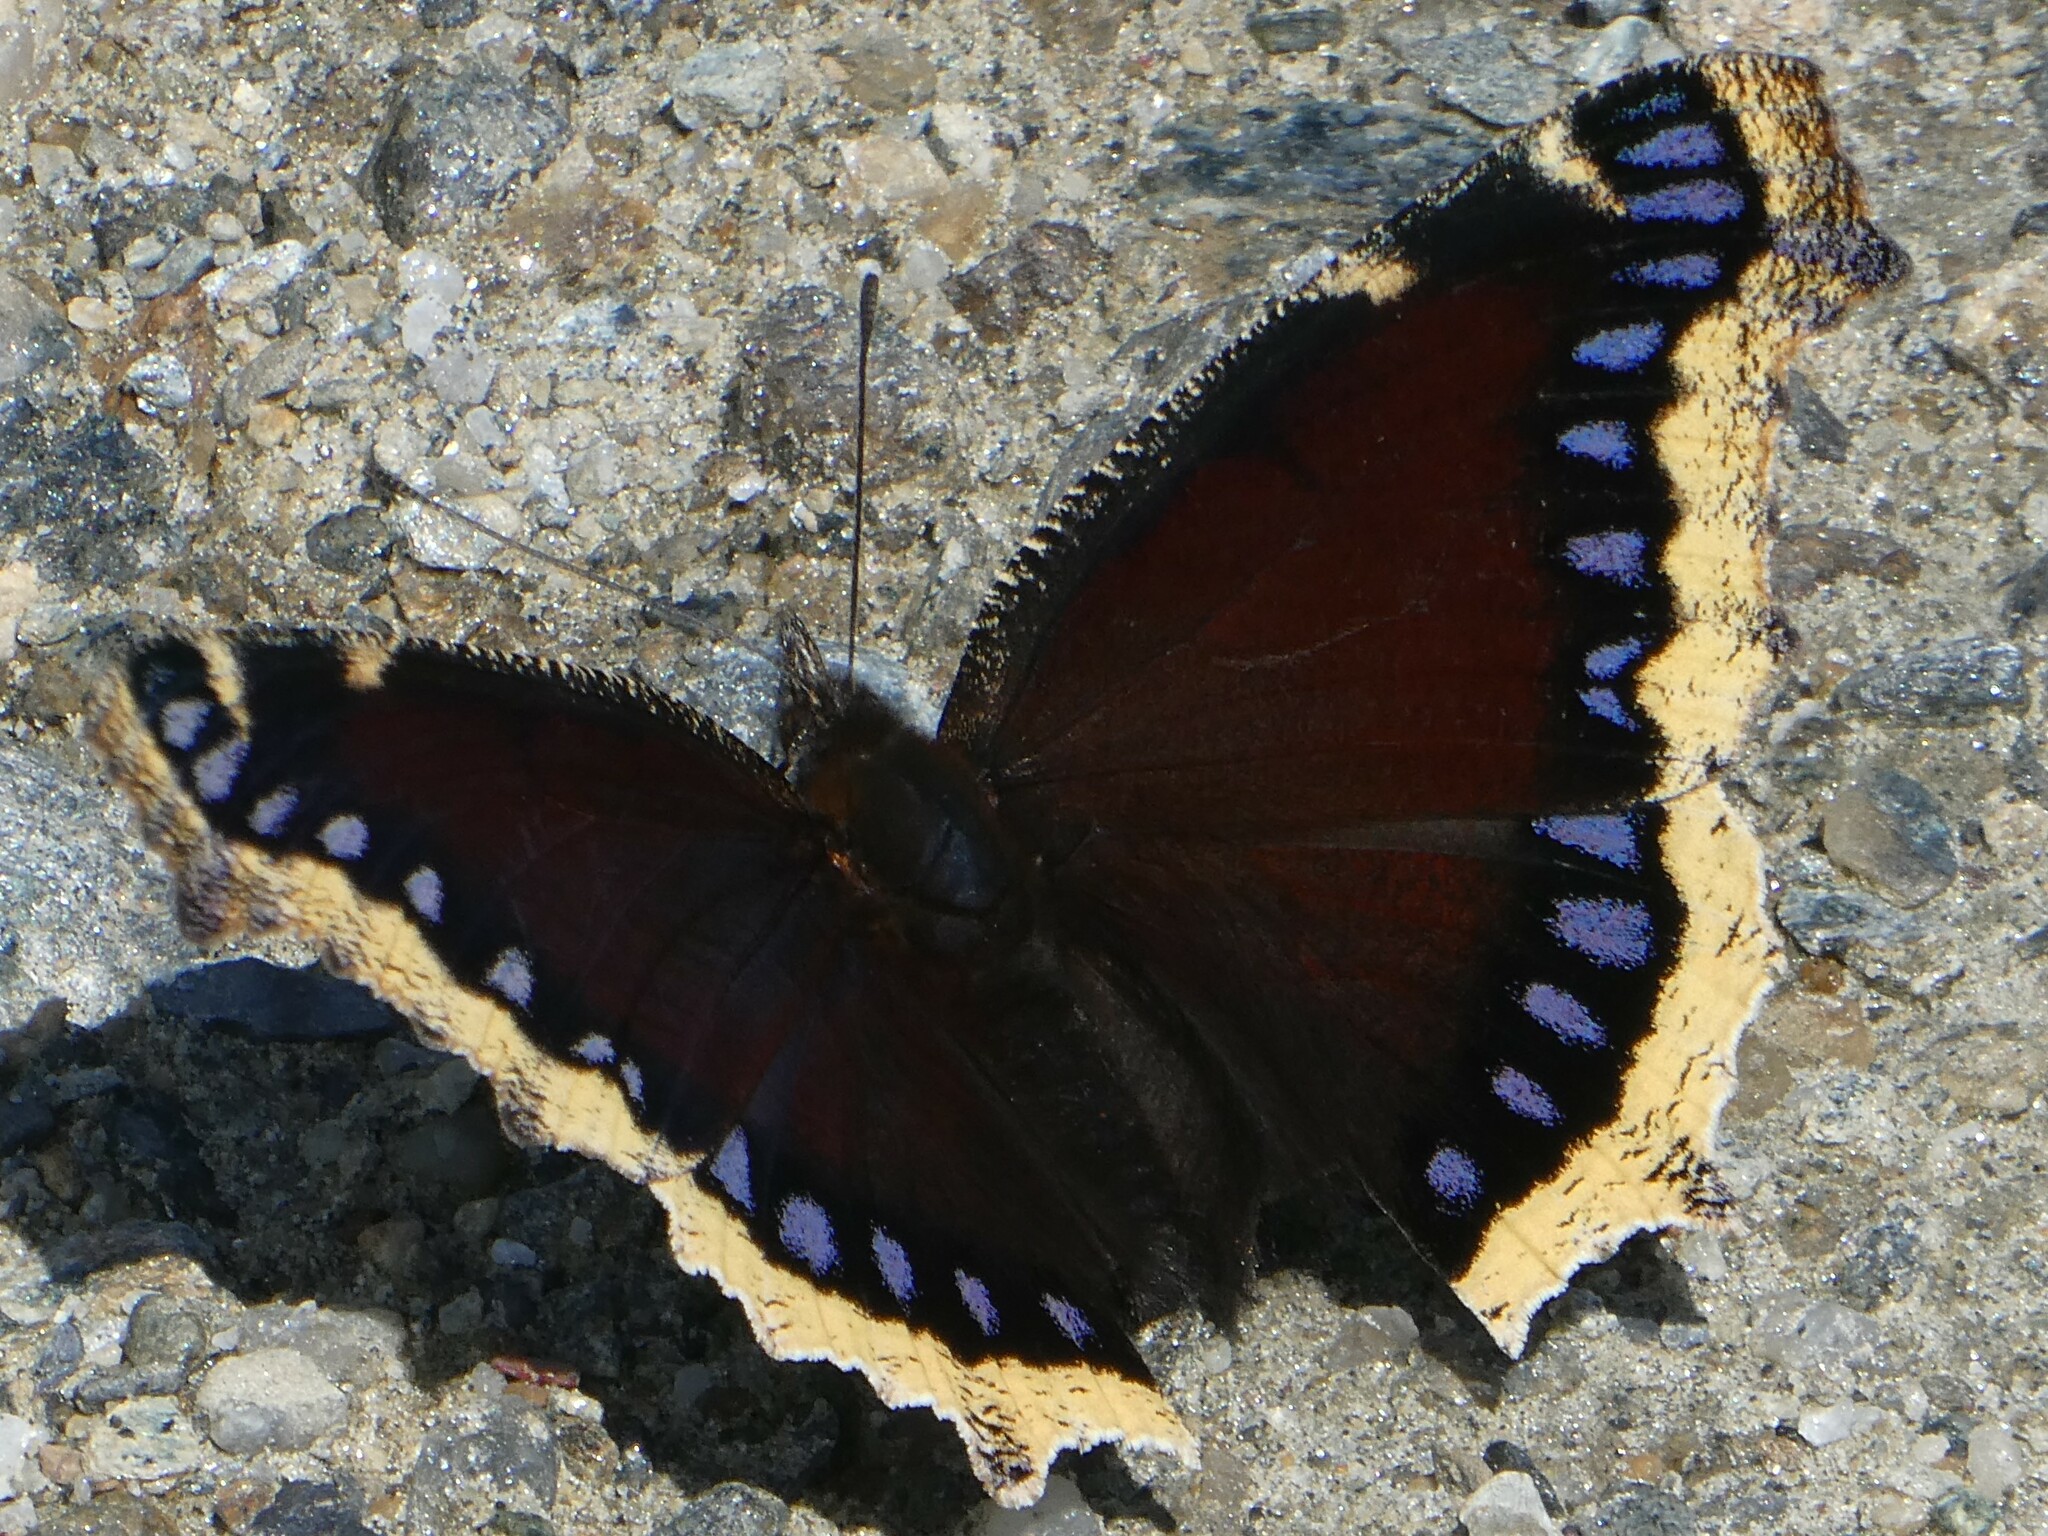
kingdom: Animalia
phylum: Arthropoda
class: Insecta
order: Lepidoptera
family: Nymphalidae
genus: Nymphalis
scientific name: Nymphalis antiopa
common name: Camberwell beauty
